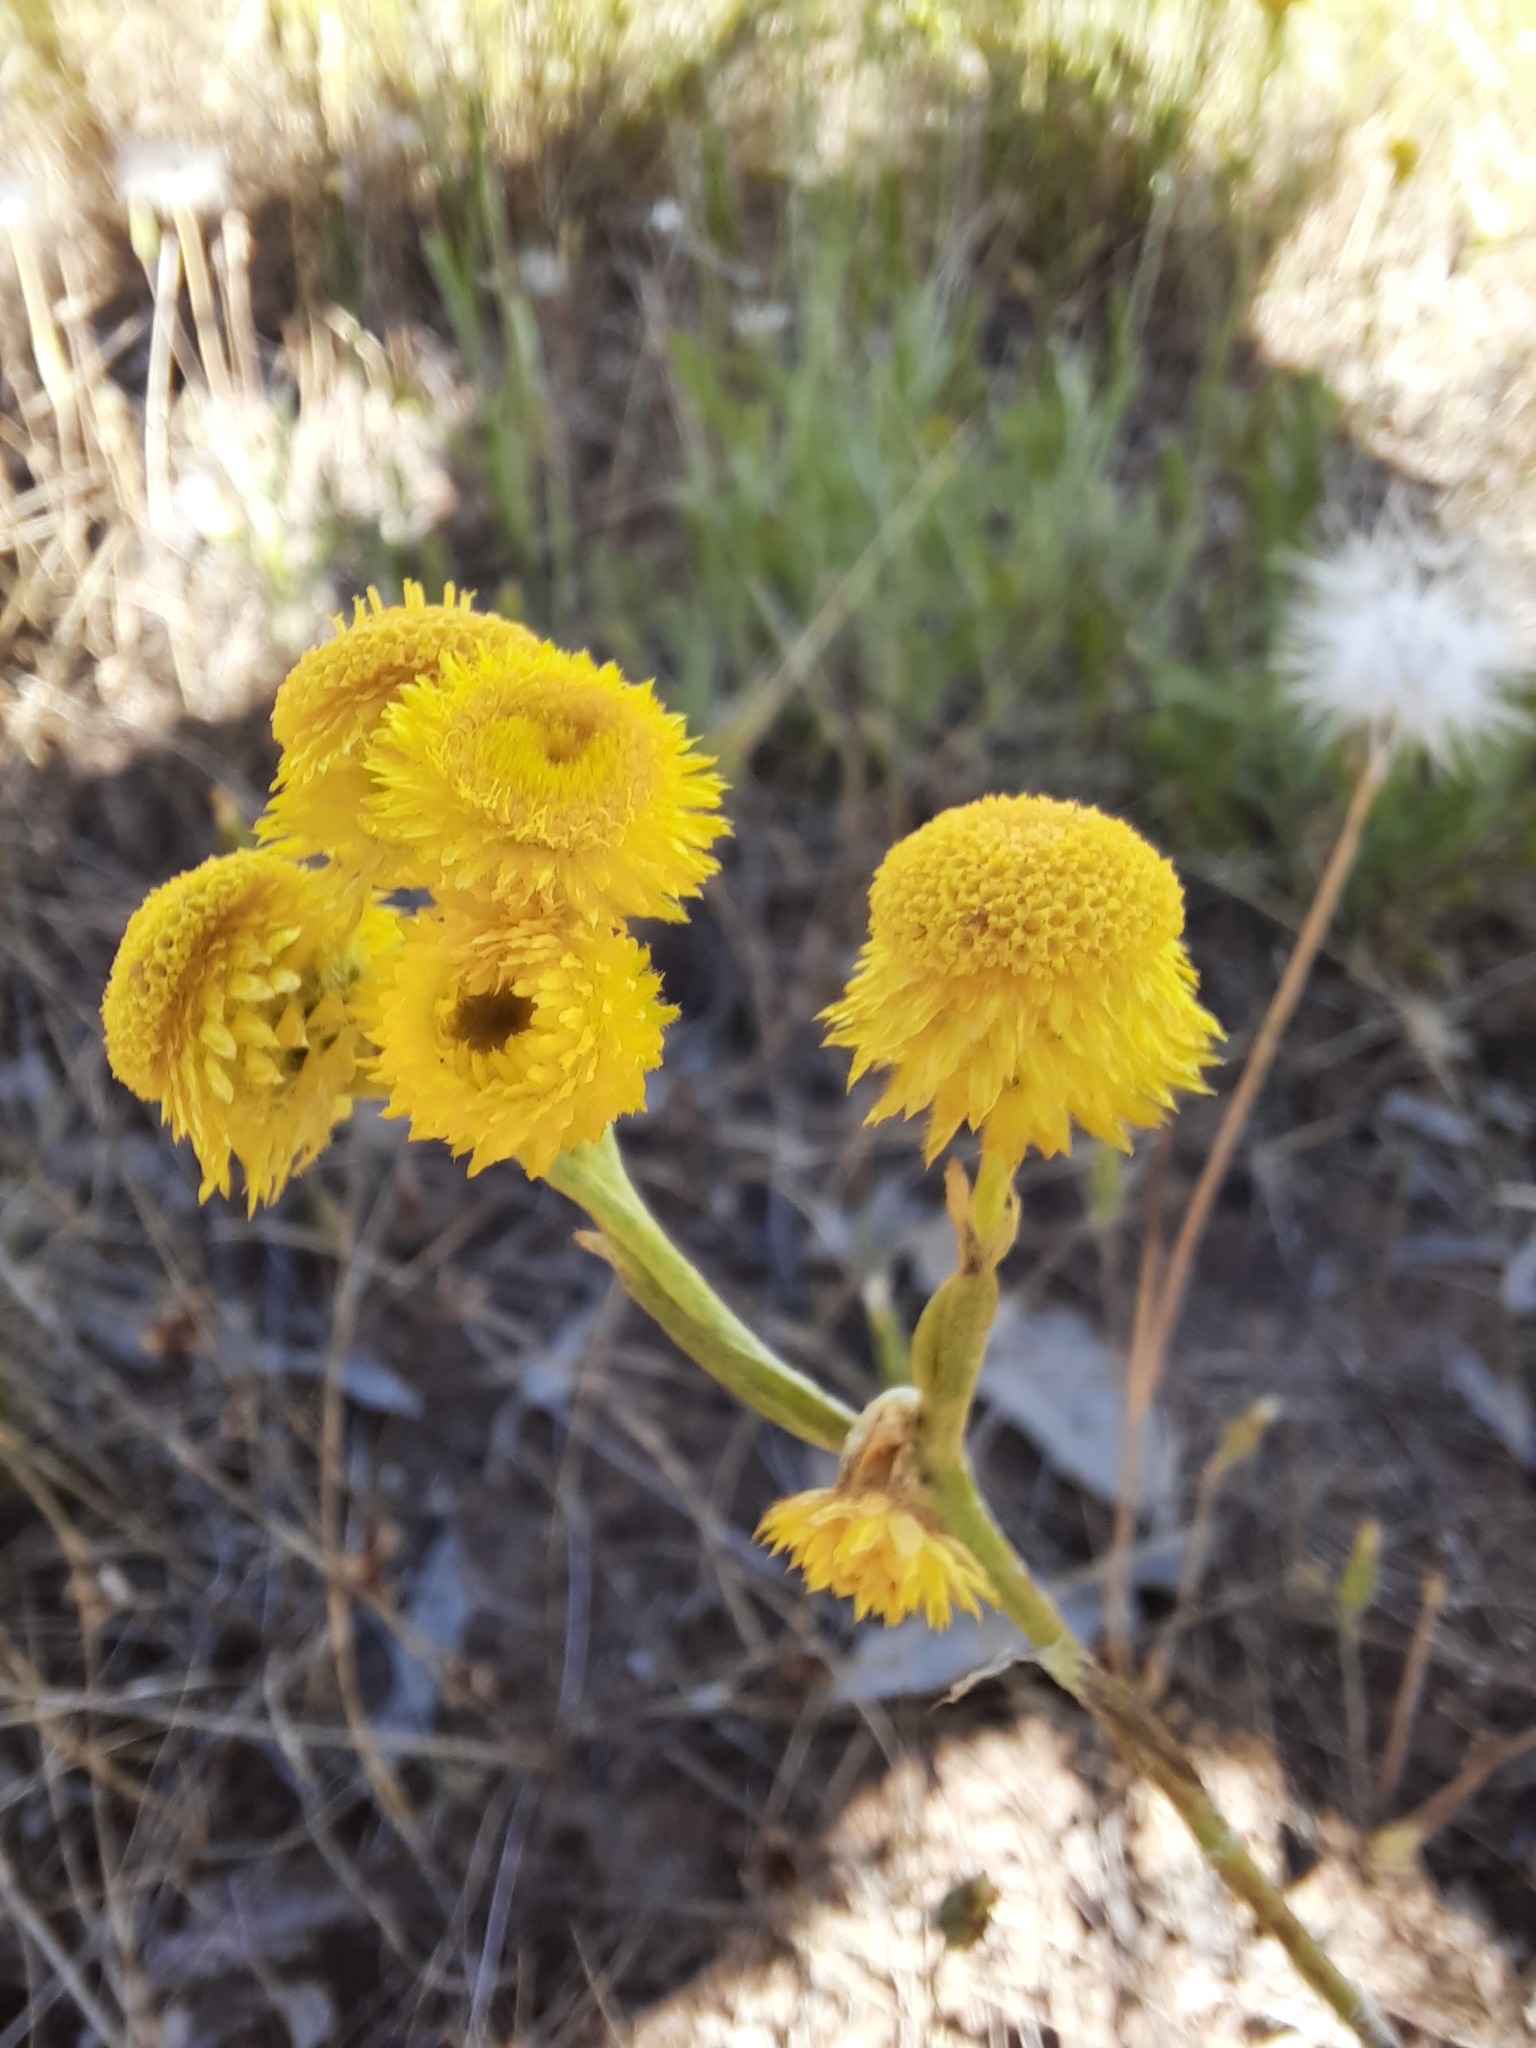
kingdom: Plantae
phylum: Tracheophyta
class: Magnoliopsida
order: Asterales
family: Asteraceae
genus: Chrysocephalum
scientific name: Chrysocephalum apiculatum
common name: Common everlasting
